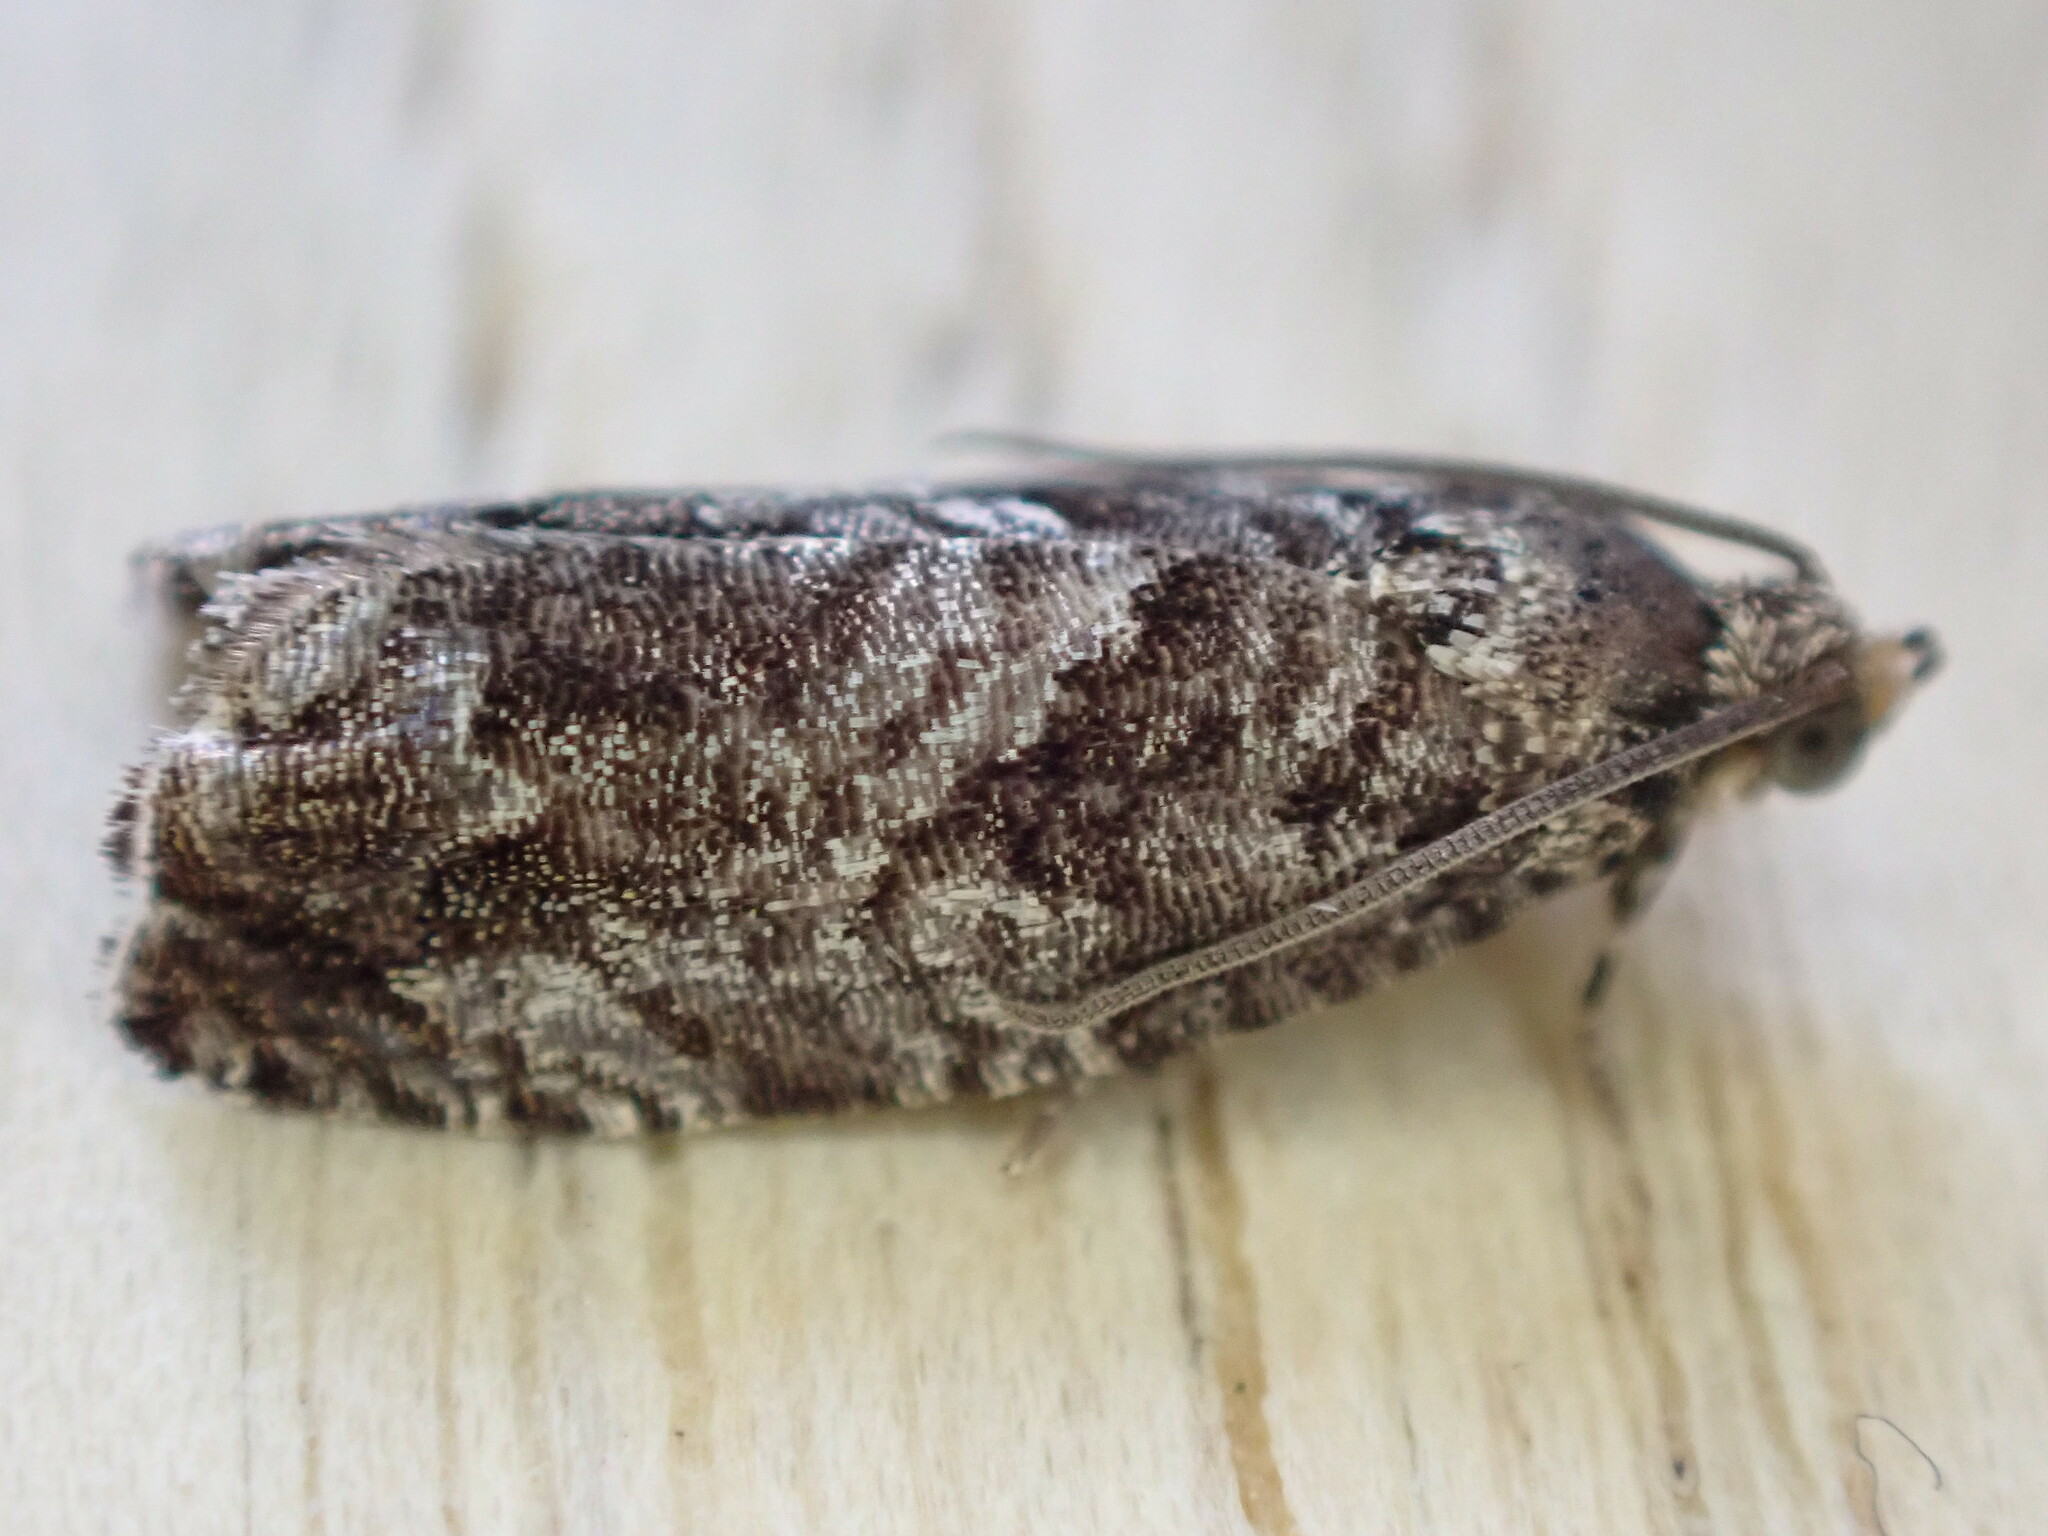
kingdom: Animalia
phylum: Arthropoda
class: Insecta
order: Lepidoptera
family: Tortricidae
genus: Cydia
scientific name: Cydia fagiglandana
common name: Large beech piercer
